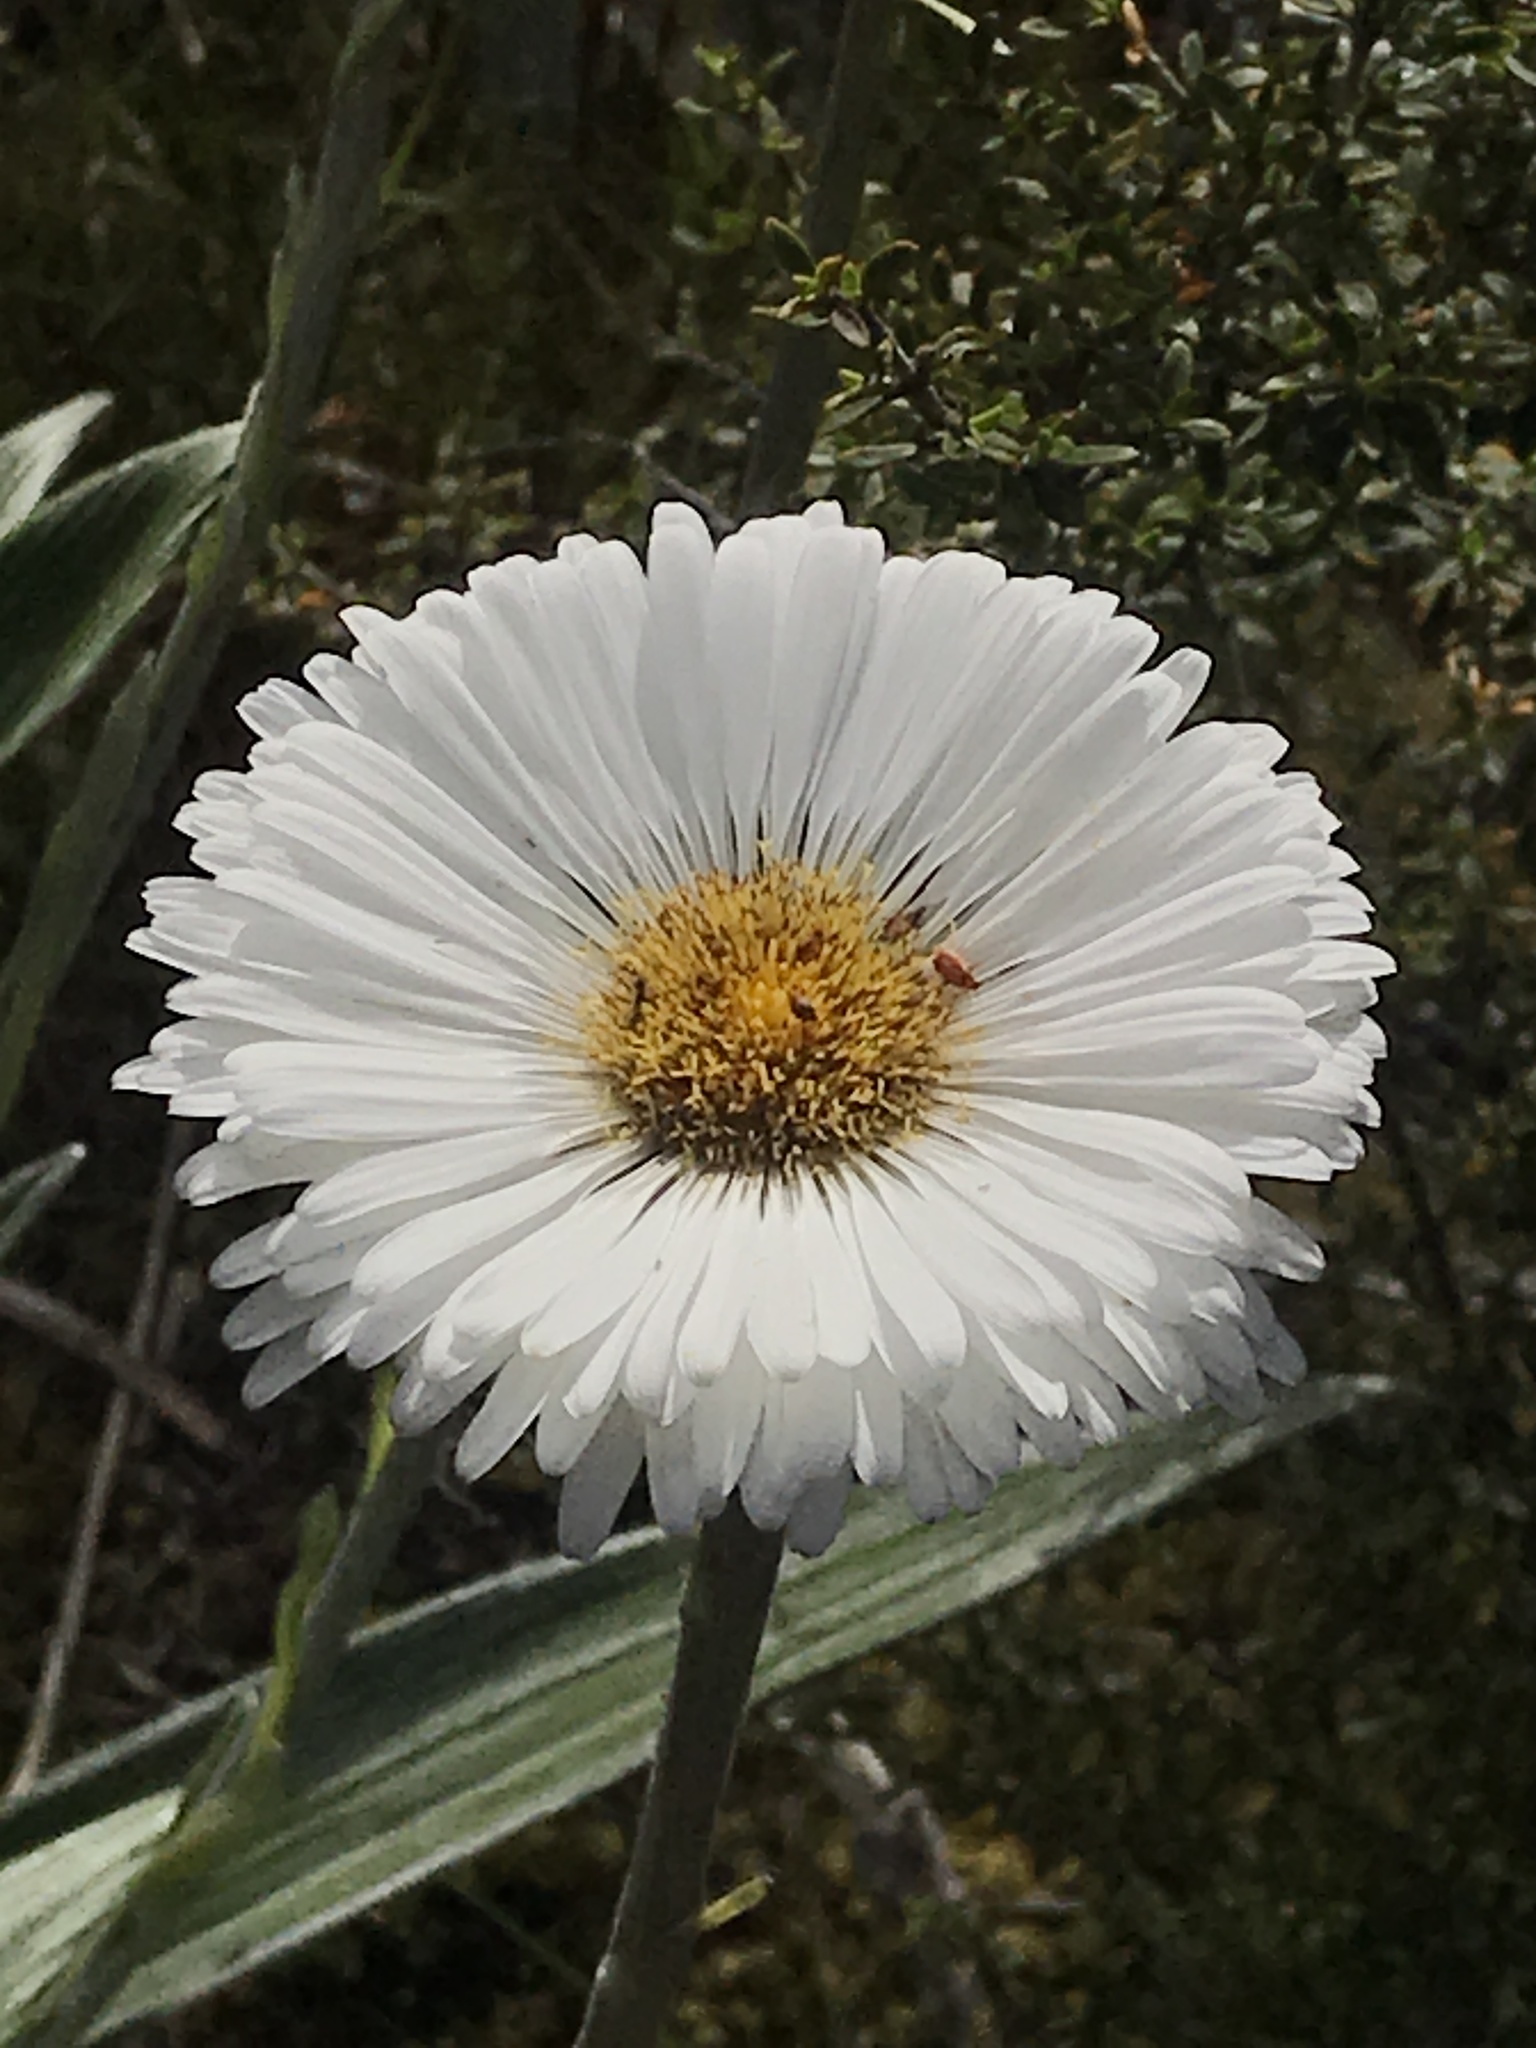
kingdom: Plantae
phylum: Tracheophyta
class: Magnoliopsida
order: Asterales
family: Asteraceae
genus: Celmisia
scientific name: Celmisia semicordata
